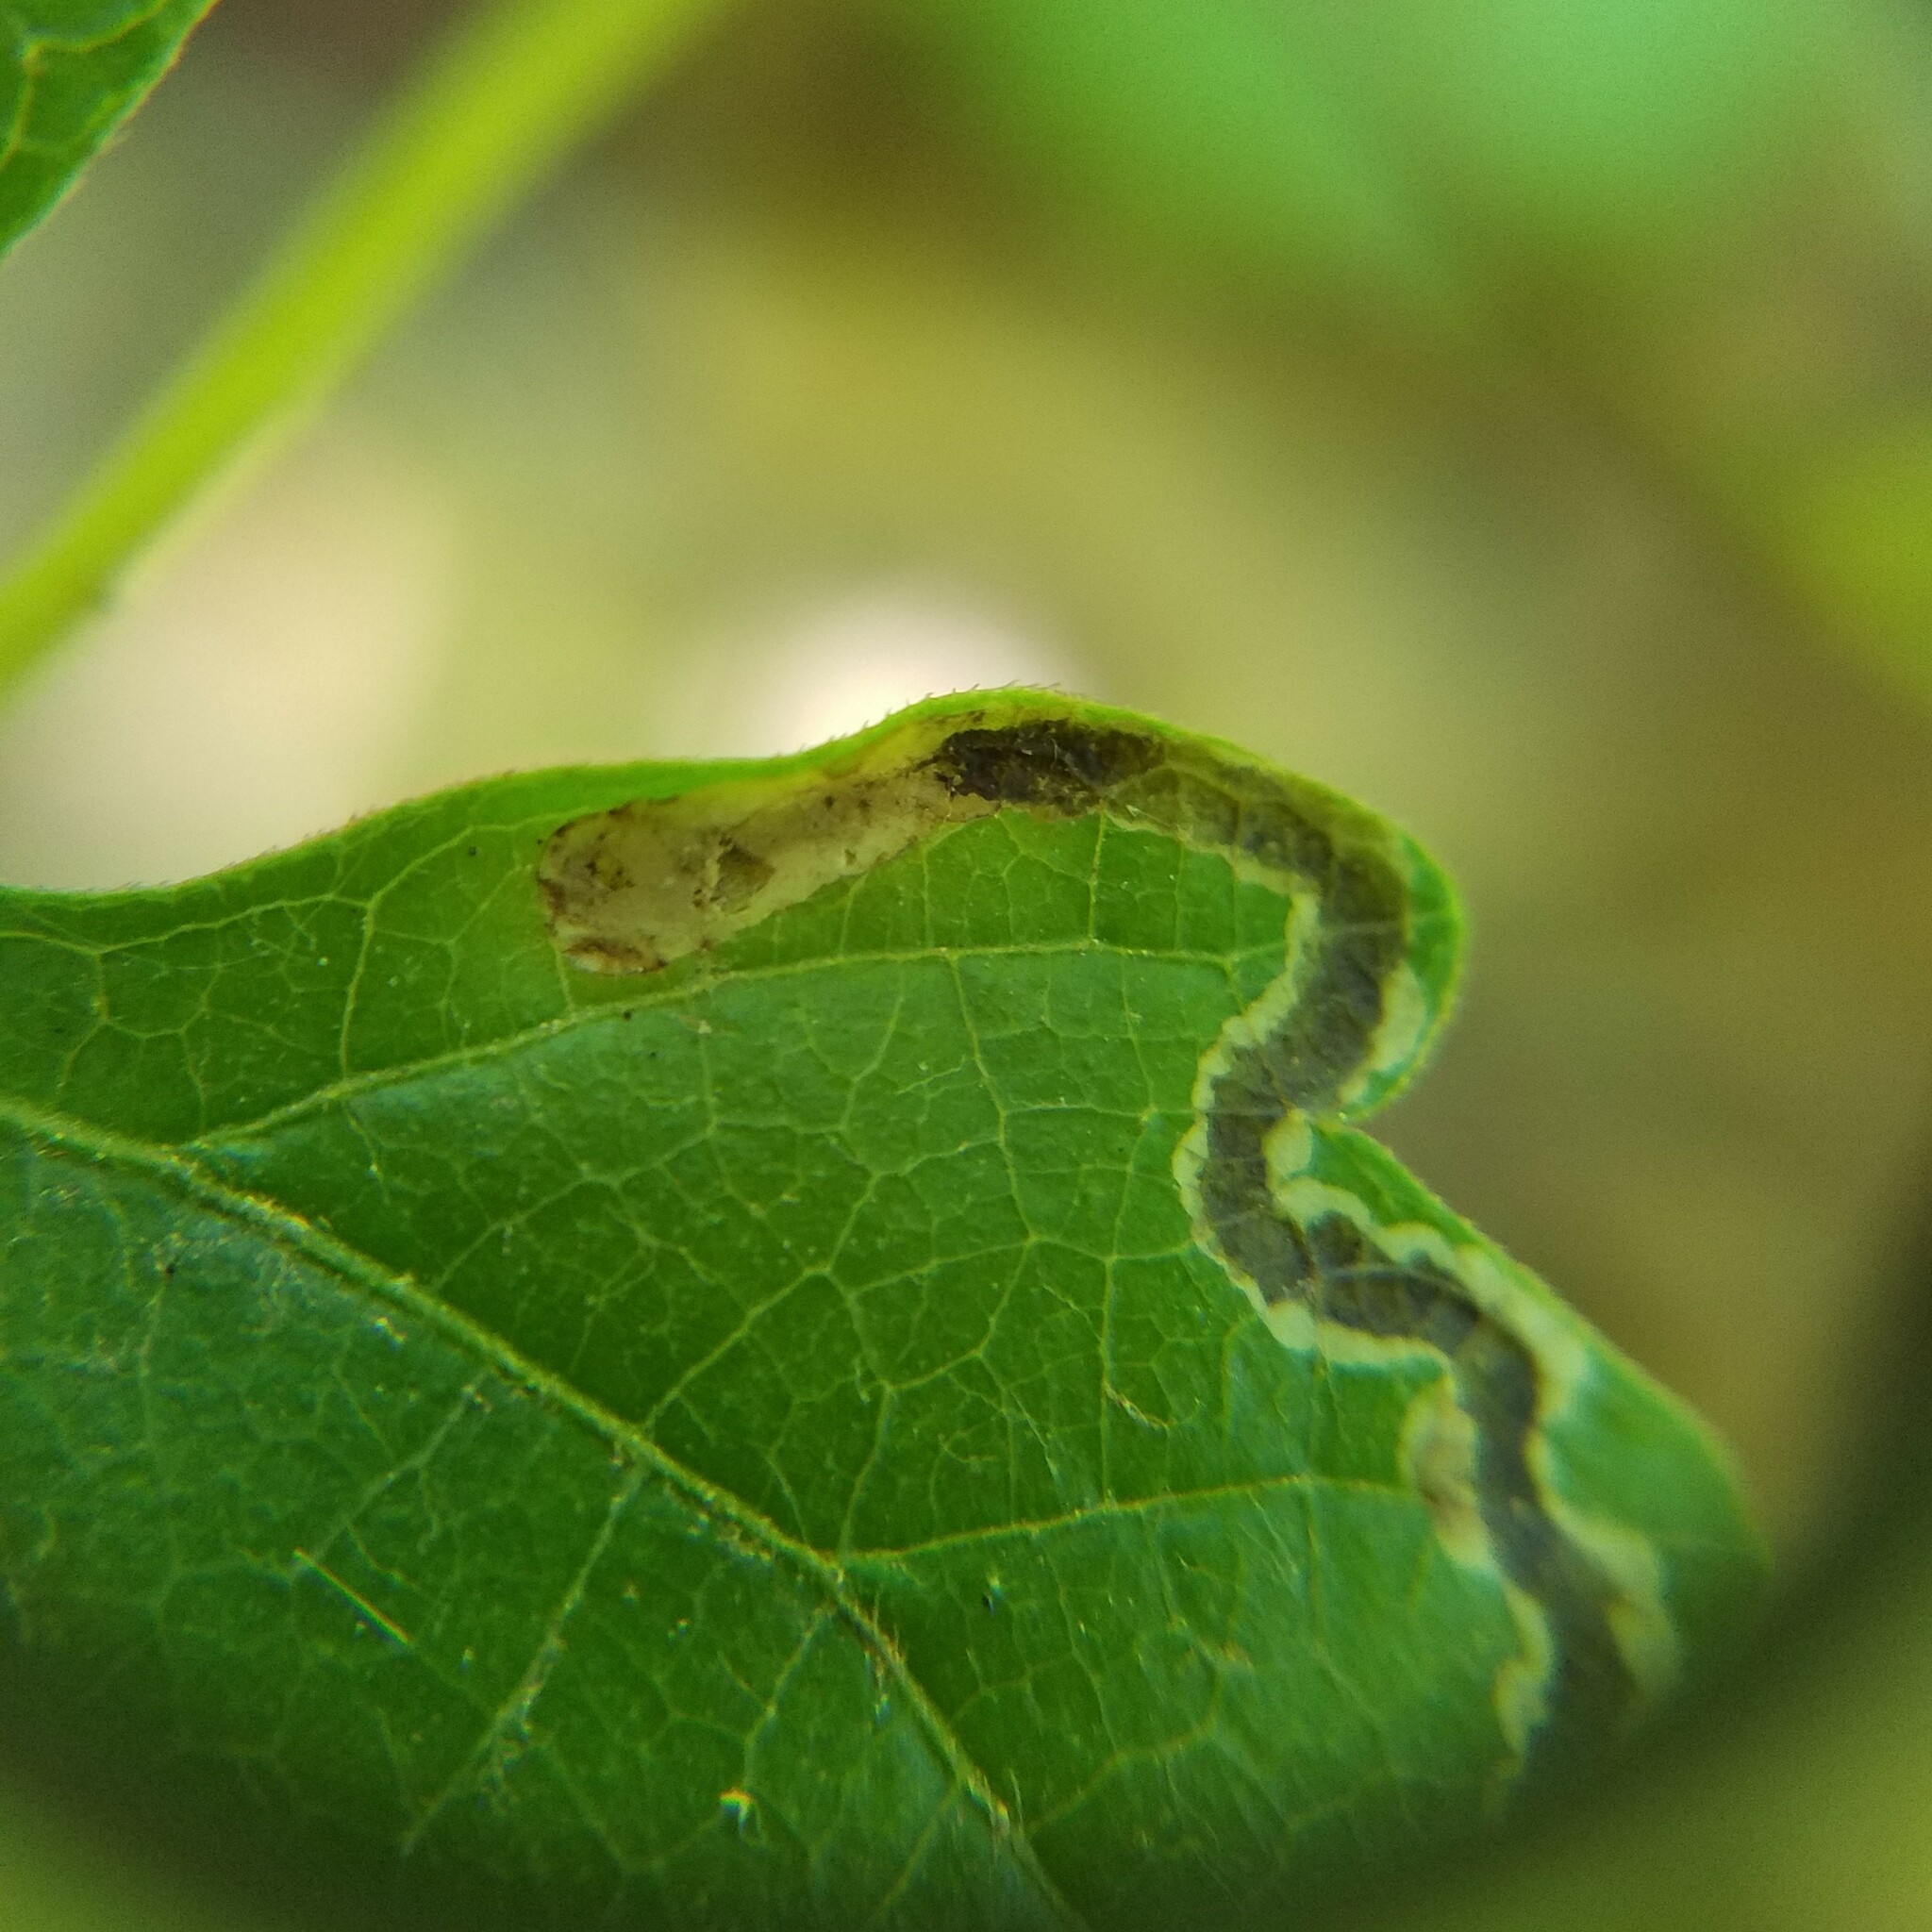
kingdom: Animalia
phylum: Arthropoda
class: Insecta
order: Lepidoptera
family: Gracillariidae
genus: Phyllocnistis
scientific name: Phyllocnistis vitifoliella
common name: Grape leaf-miner moth
